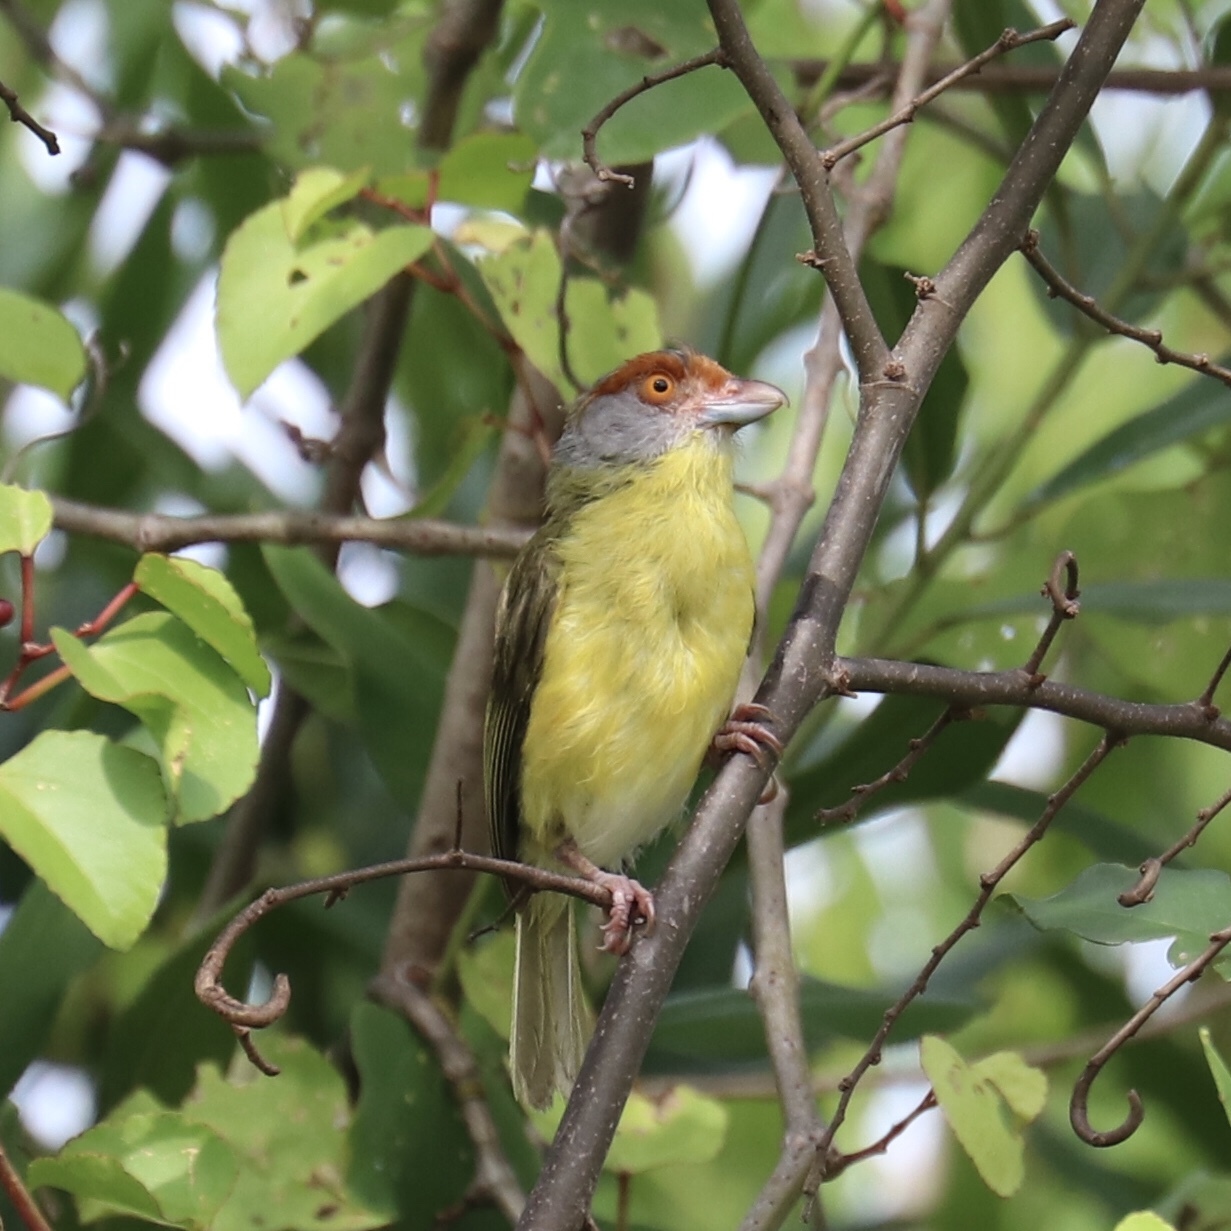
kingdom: Animalia
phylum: Chordata
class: Aves
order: Passeriformes
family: Vireonidae
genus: Cyclarhis
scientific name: Cyclarhis gujanensis
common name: Rufous-browed peppershrike
